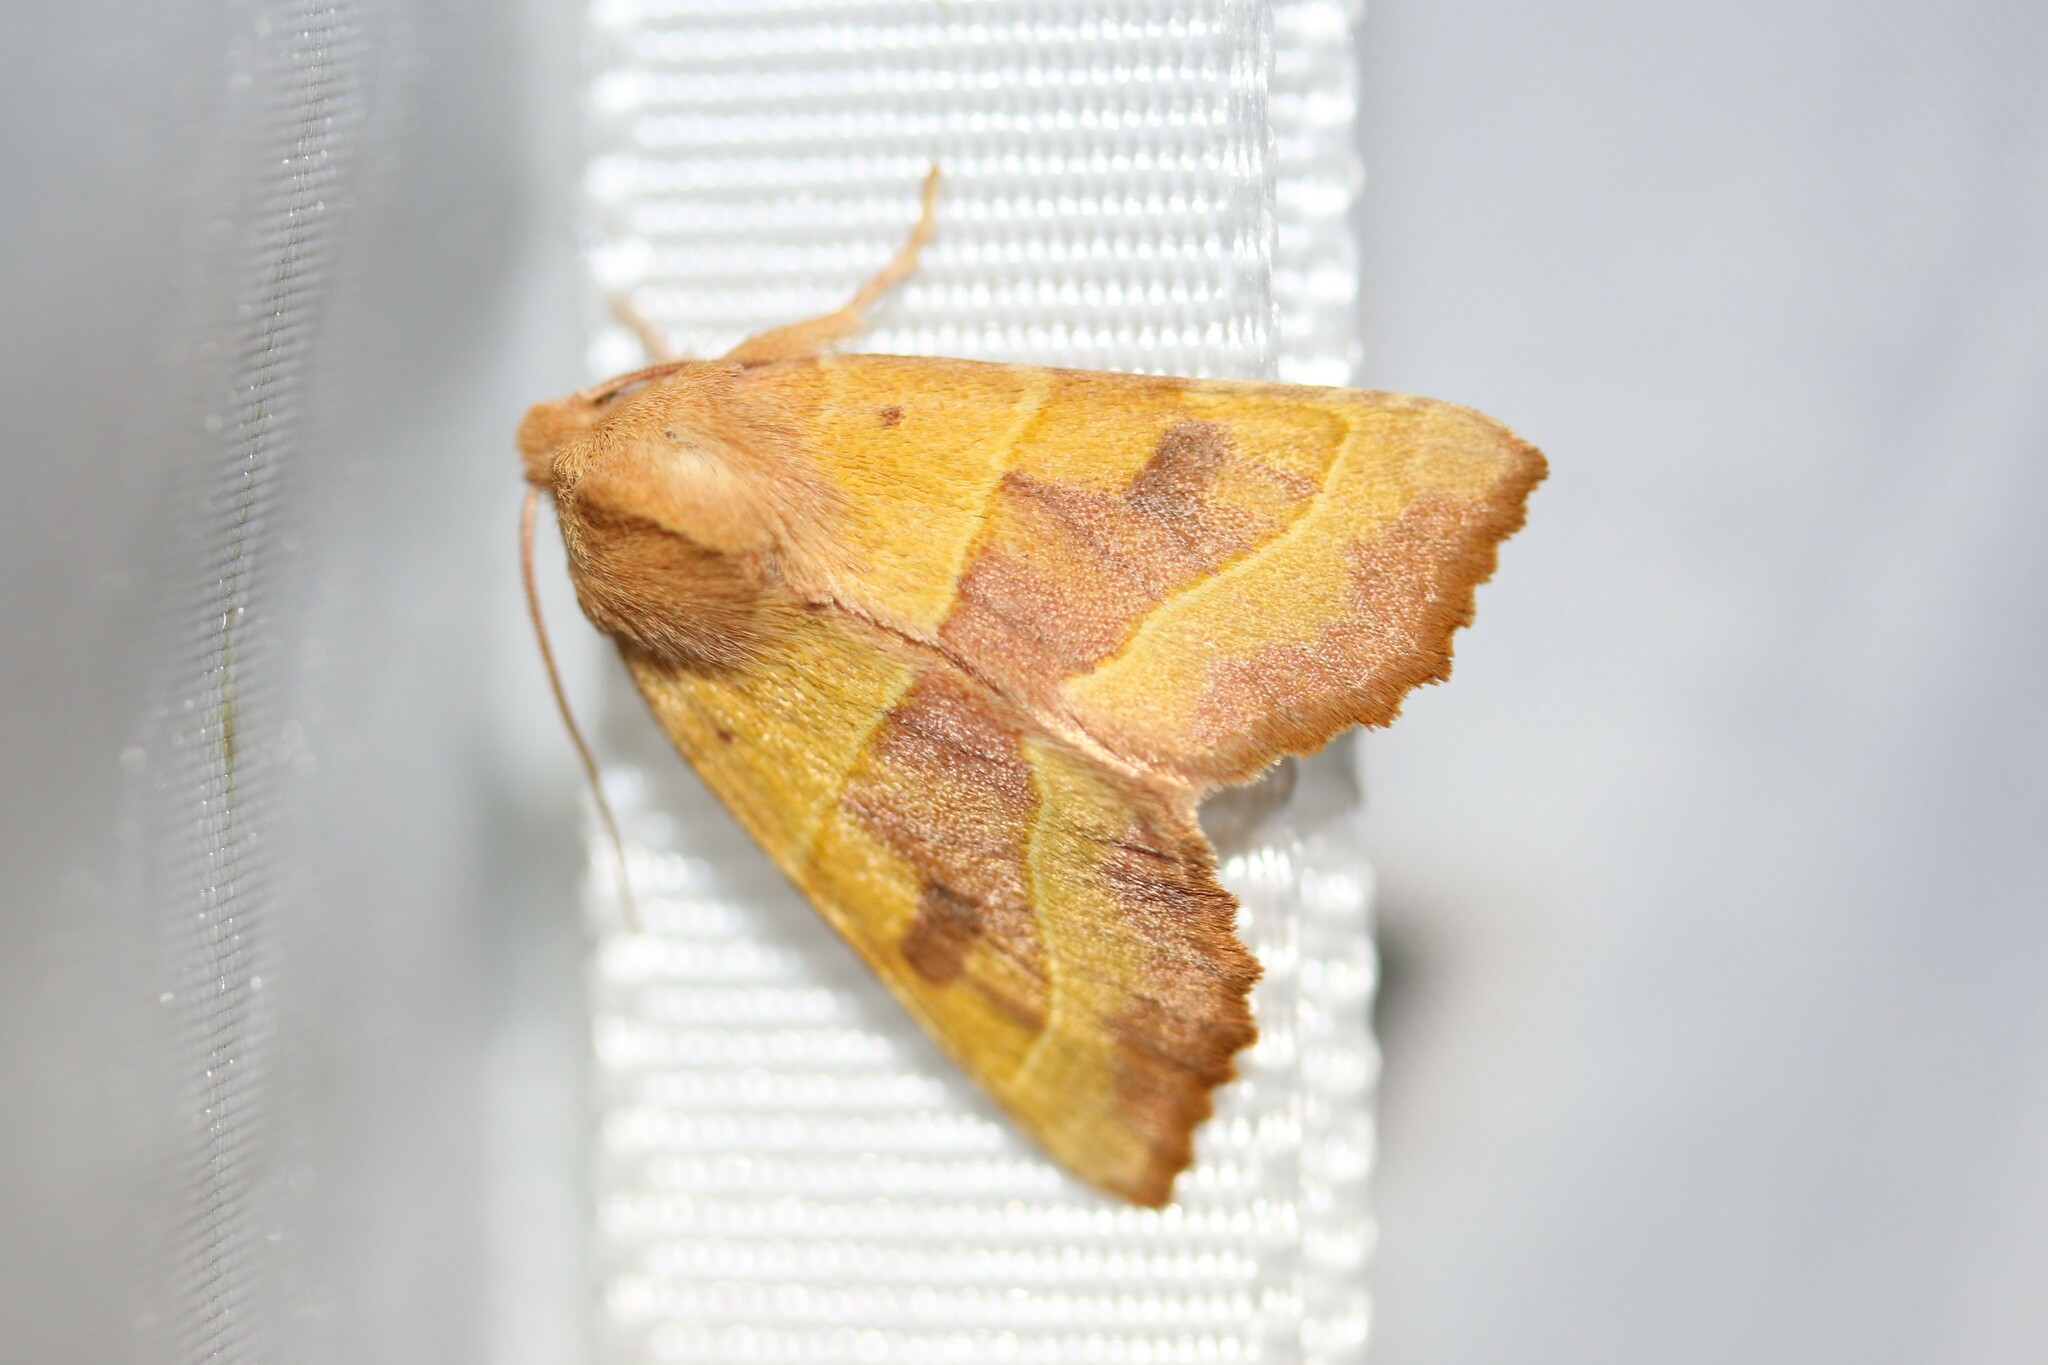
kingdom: Animalia
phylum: Arthropoda
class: Insecta
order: Lepidoptera
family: Noctuidae
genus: Atethmia
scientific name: Atethmia centrago
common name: Centre-barred sallow
